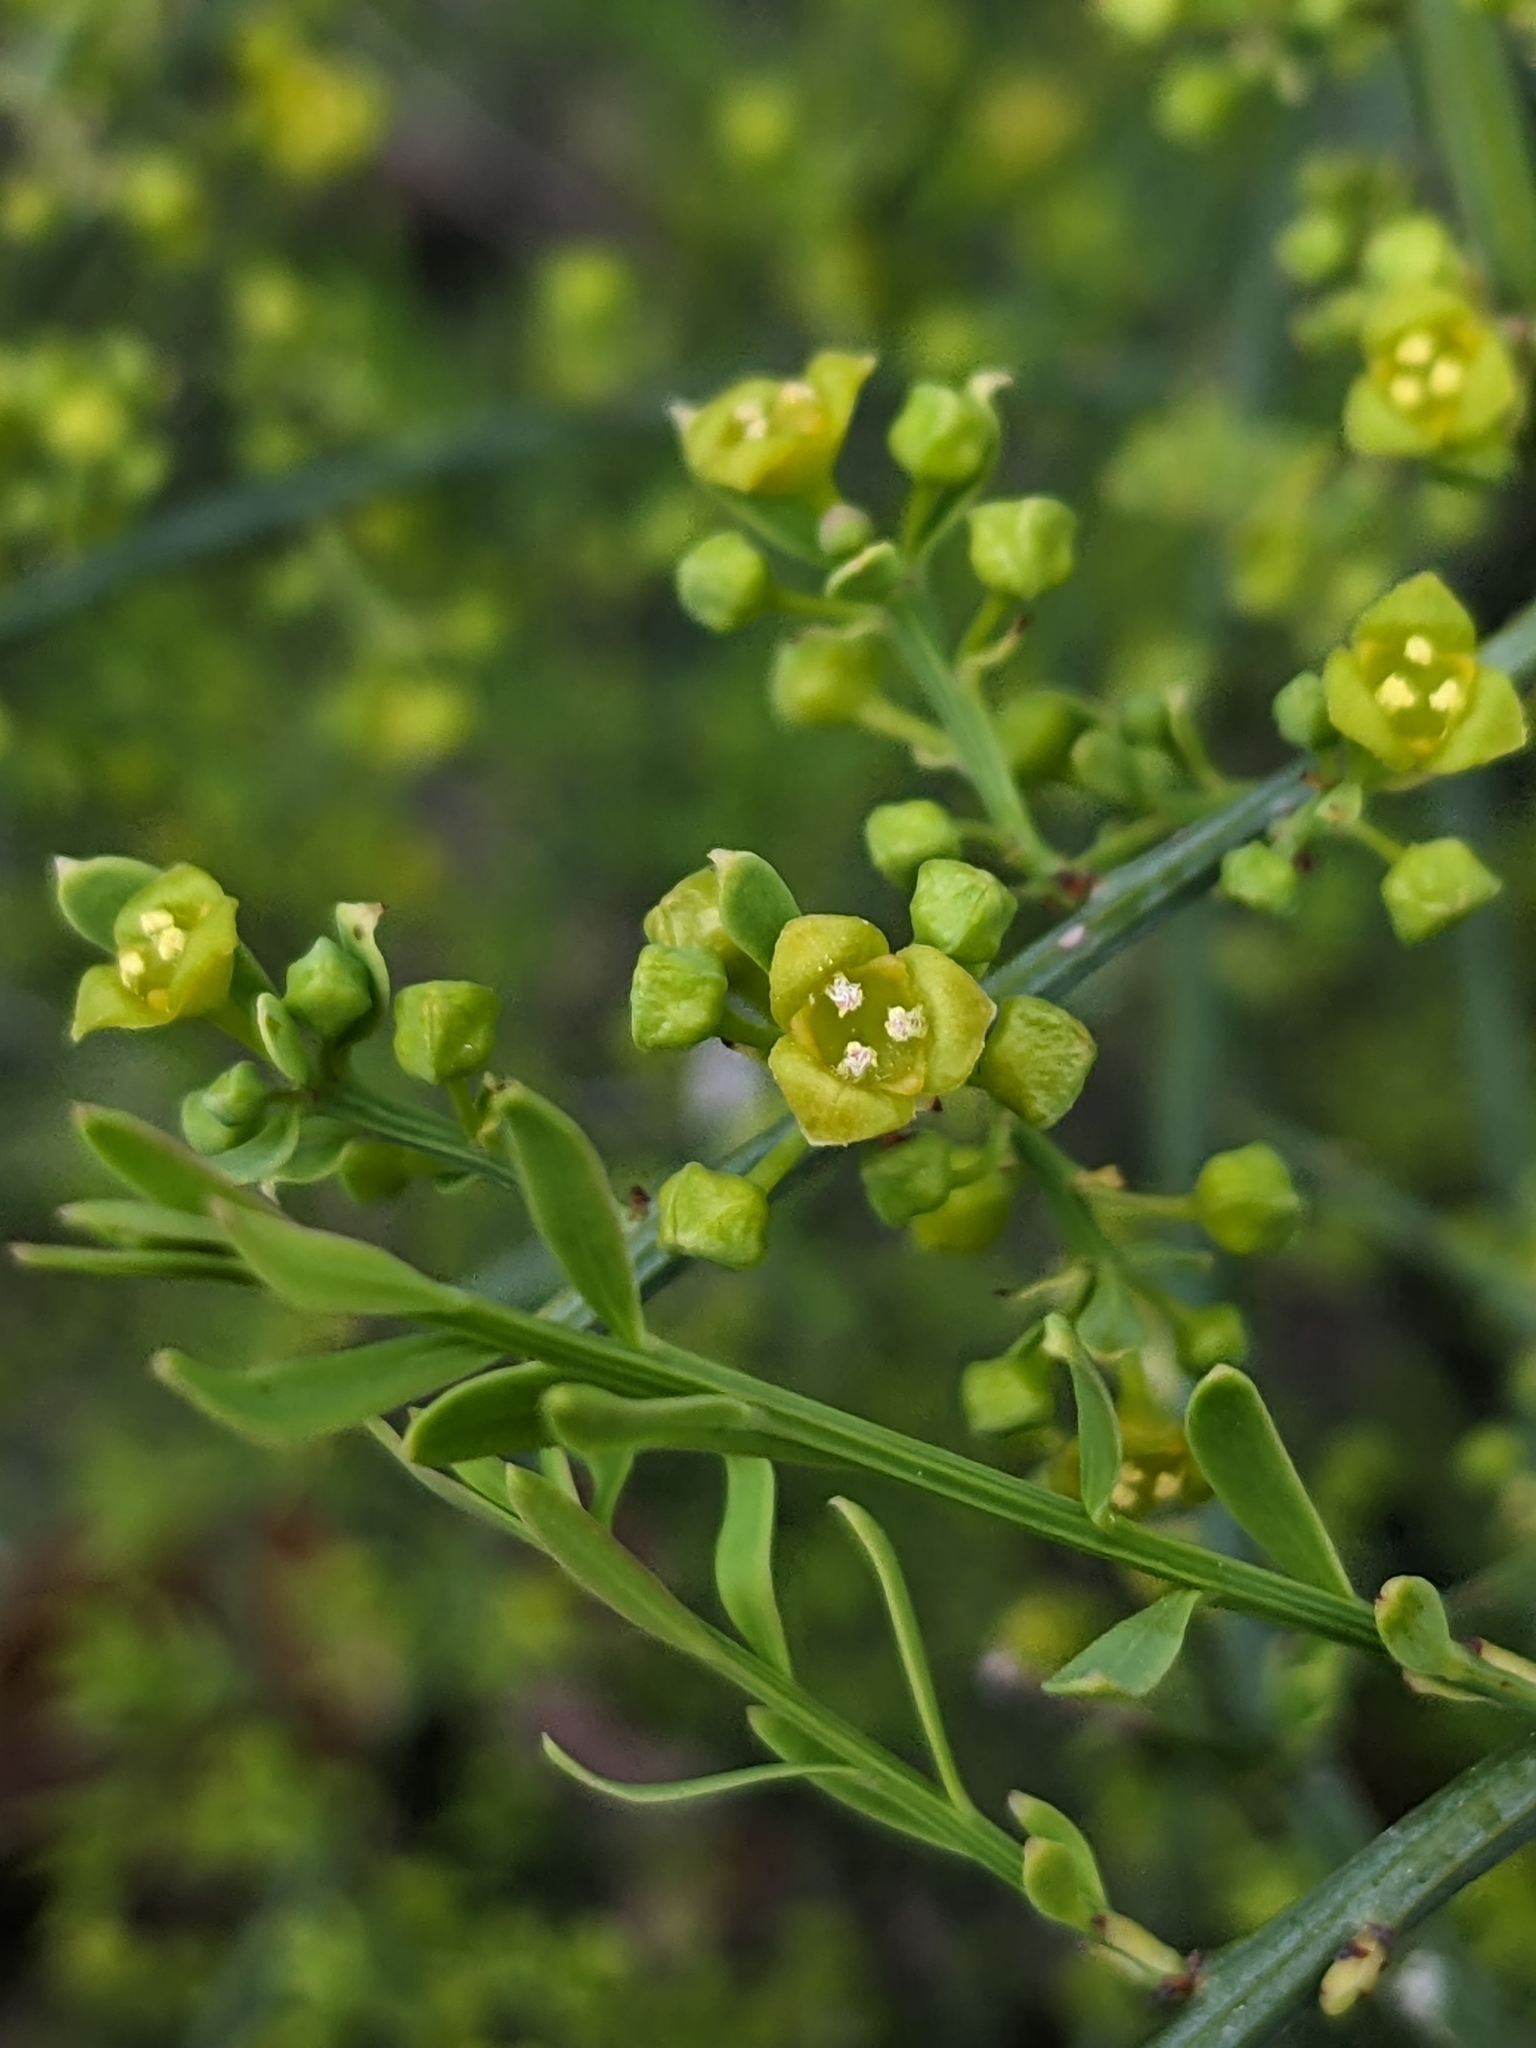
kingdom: Plantae
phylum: Tracheophyta
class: Magnoliopsida
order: Santalales
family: Santalaceae
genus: Osyris
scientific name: Osyris alba
